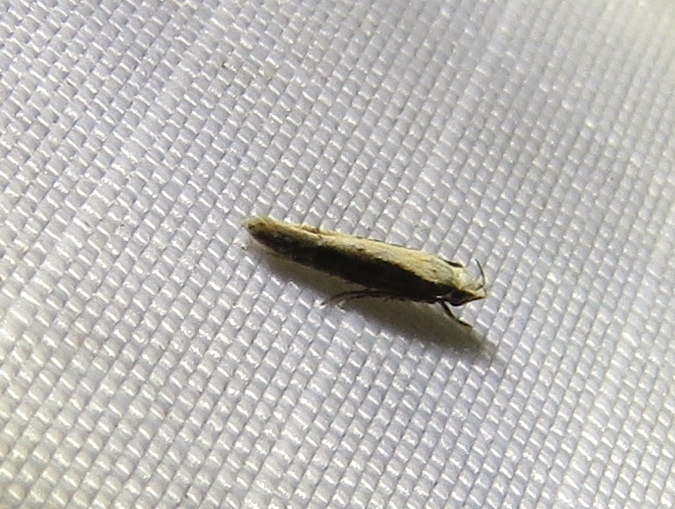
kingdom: Animalia
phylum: Arthropoda
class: Insecta
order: Lepidoptera
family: Gelechiidae
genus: Aristotelia
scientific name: Aristotelia corallina
